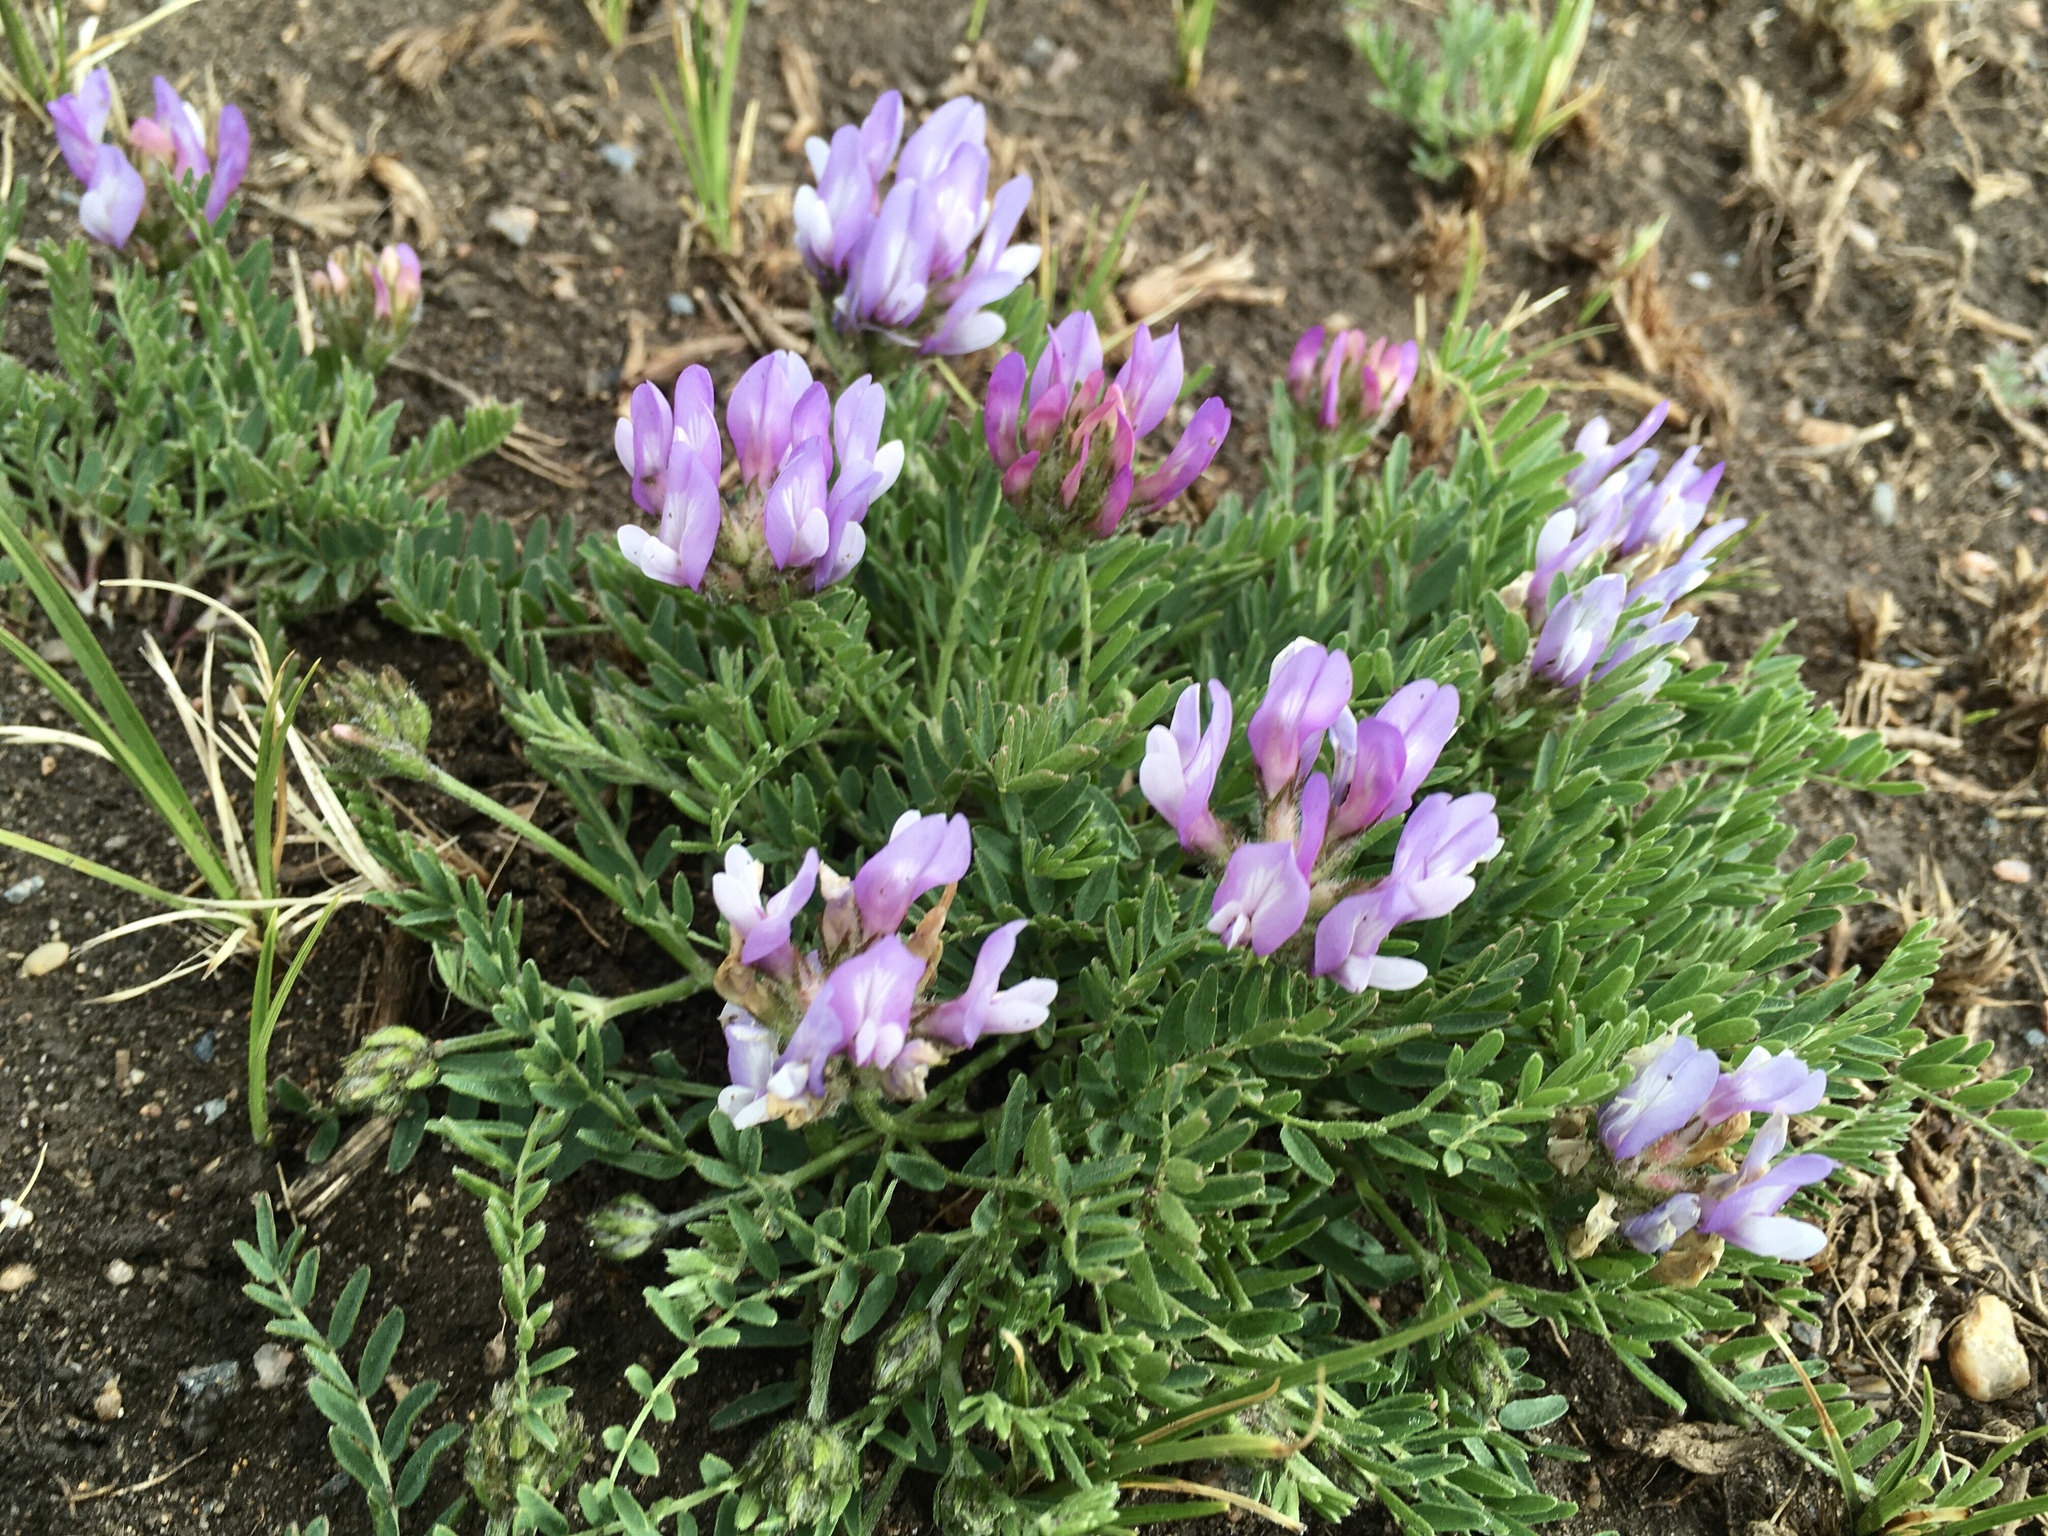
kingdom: Plantae
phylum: Tracheophyta
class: Magnoliopsida
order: Fabales
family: Fabaceae
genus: Astragalus
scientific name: Astragalus agrestis
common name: Field milk-vetch
